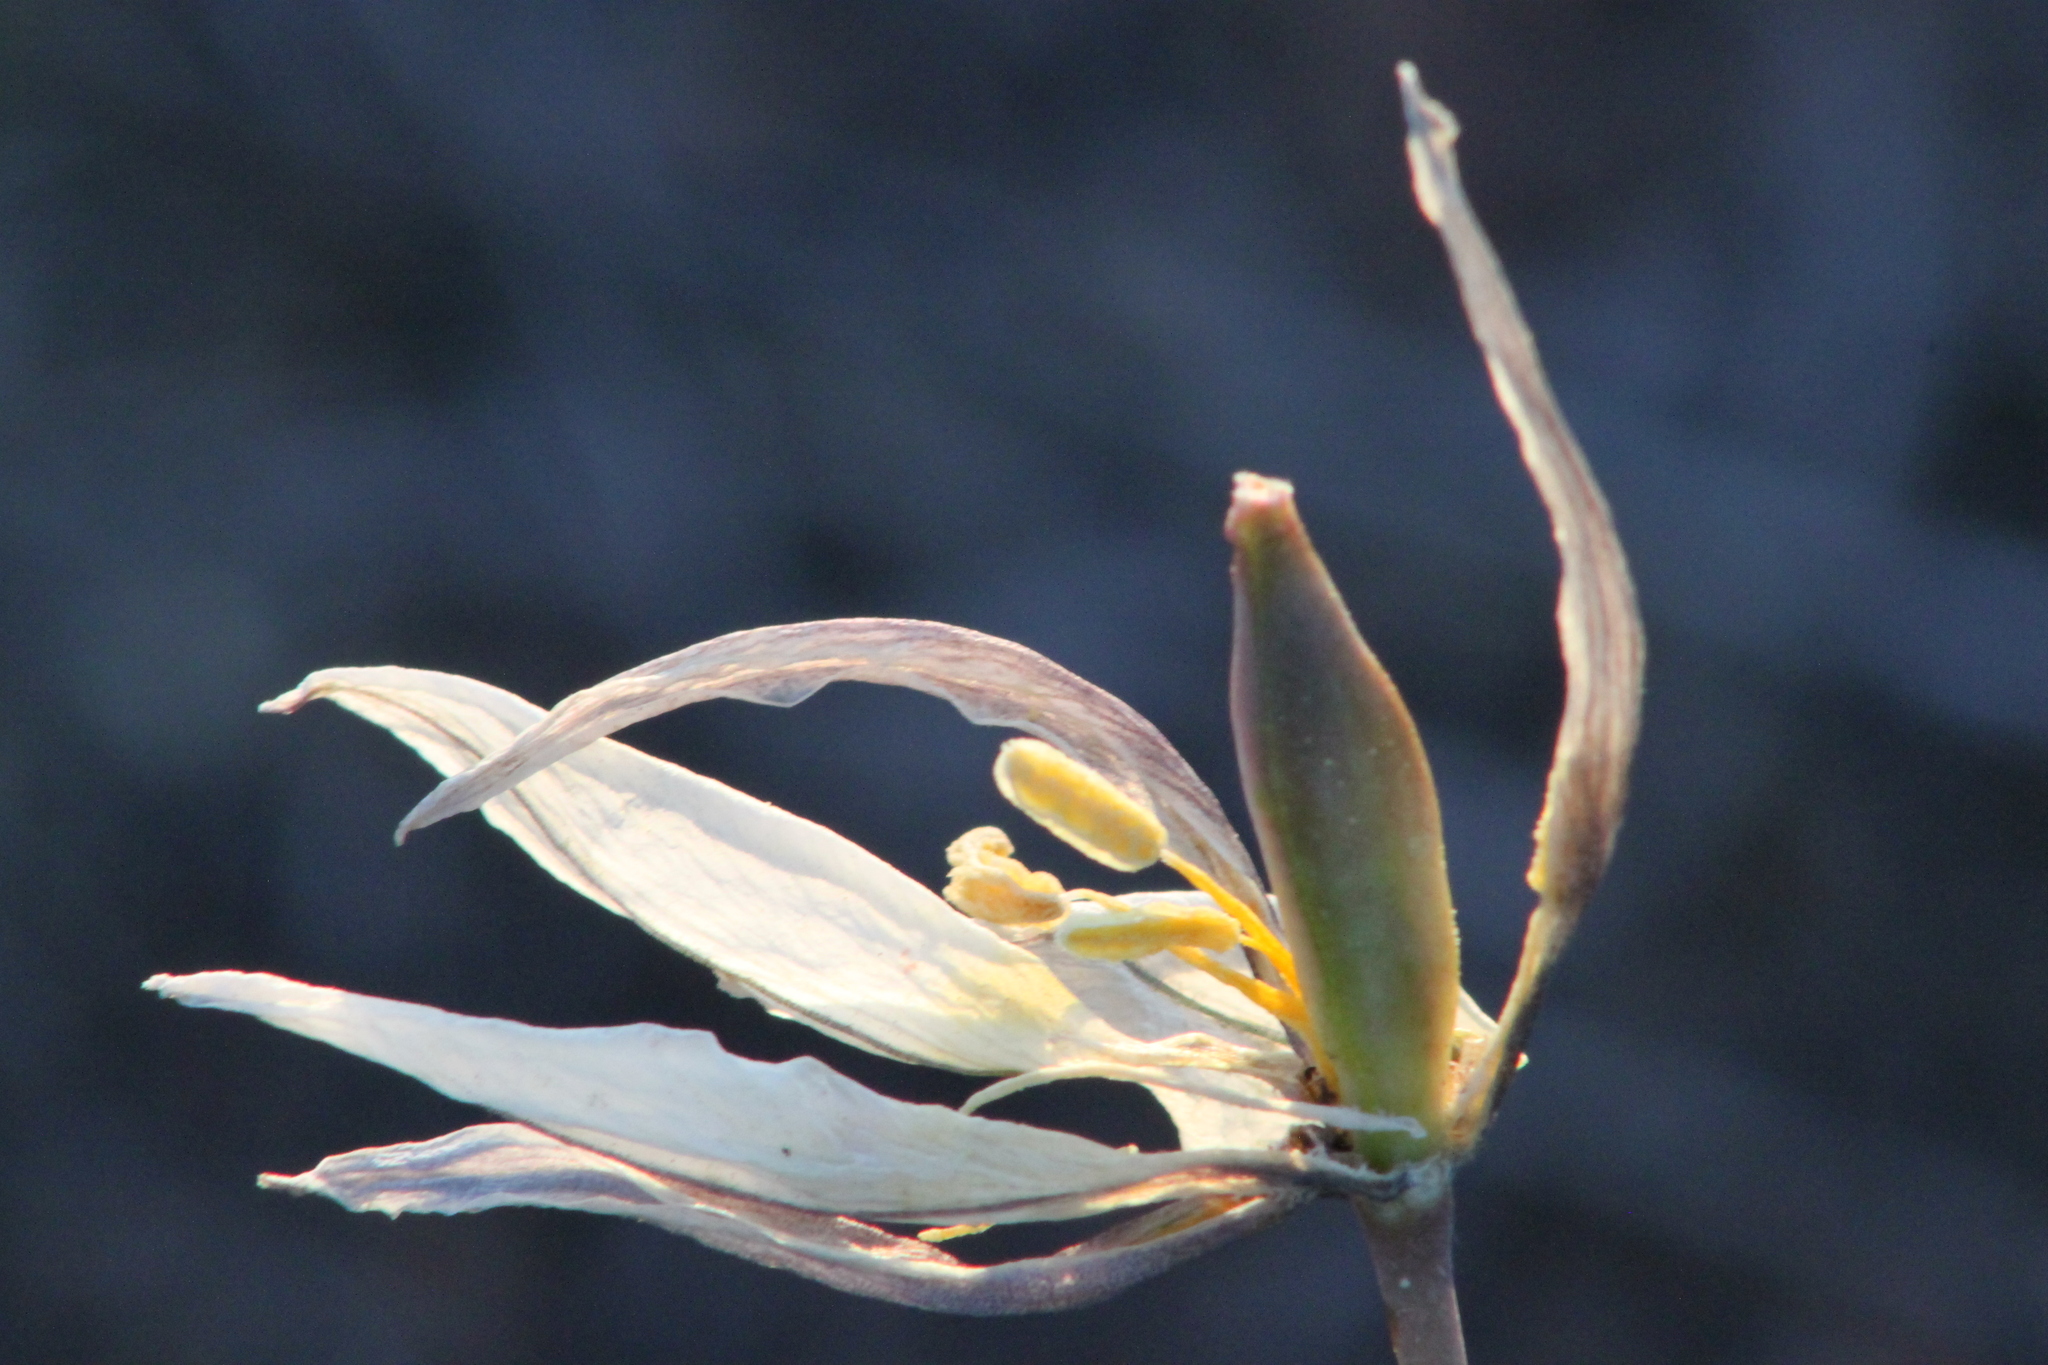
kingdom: Plantae
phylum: Tracheophyta
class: Liliopsida
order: Liliales
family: Liliaceae
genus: Tulipa
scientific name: Tulipa patens
